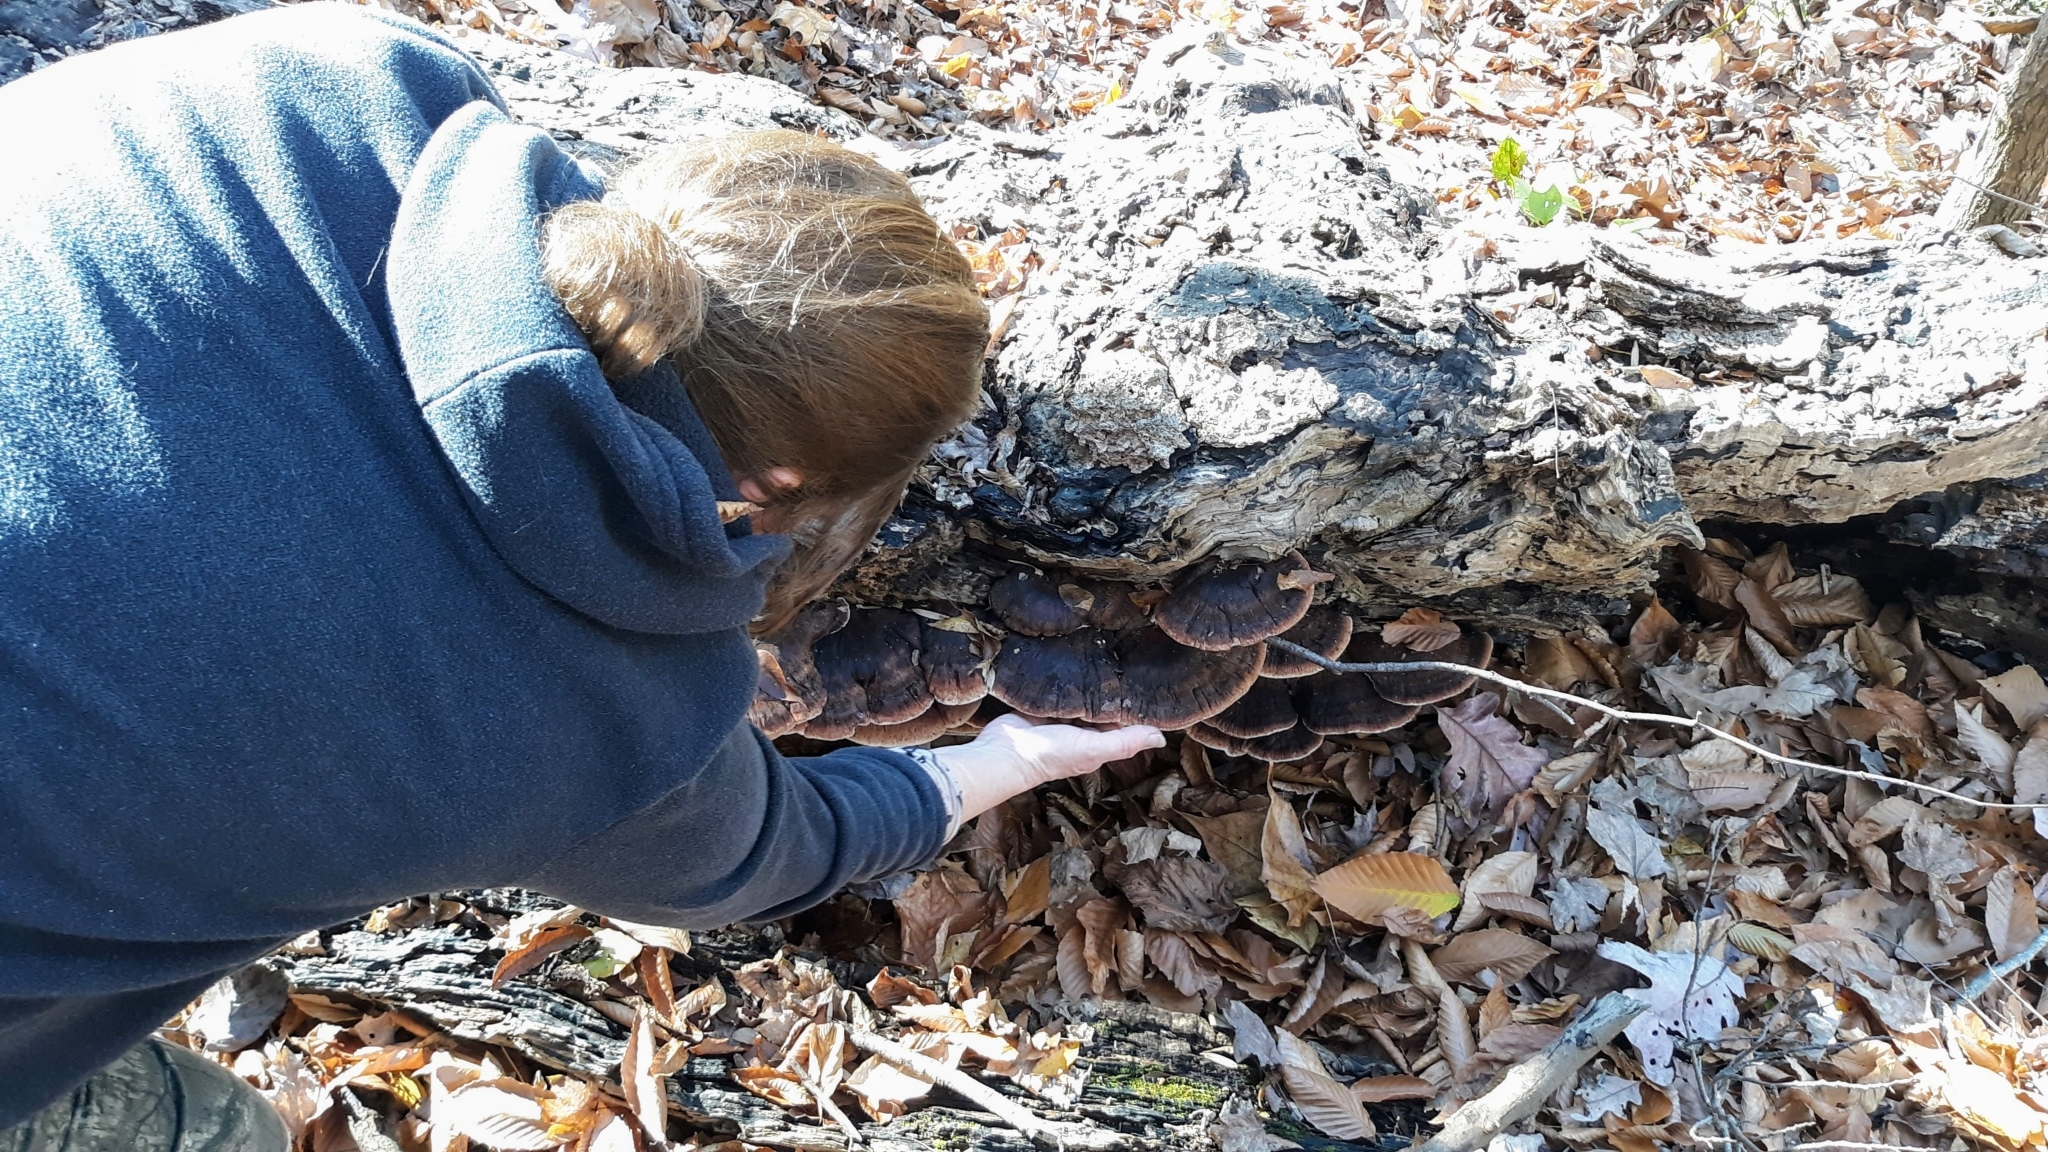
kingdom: Fungi
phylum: Basidiomycota
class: Agaricomycetes
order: Polyporales
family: Ischnodermataceae
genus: Ischnoderma
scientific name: Ischnoderma resinosum
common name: Resinous polypore
